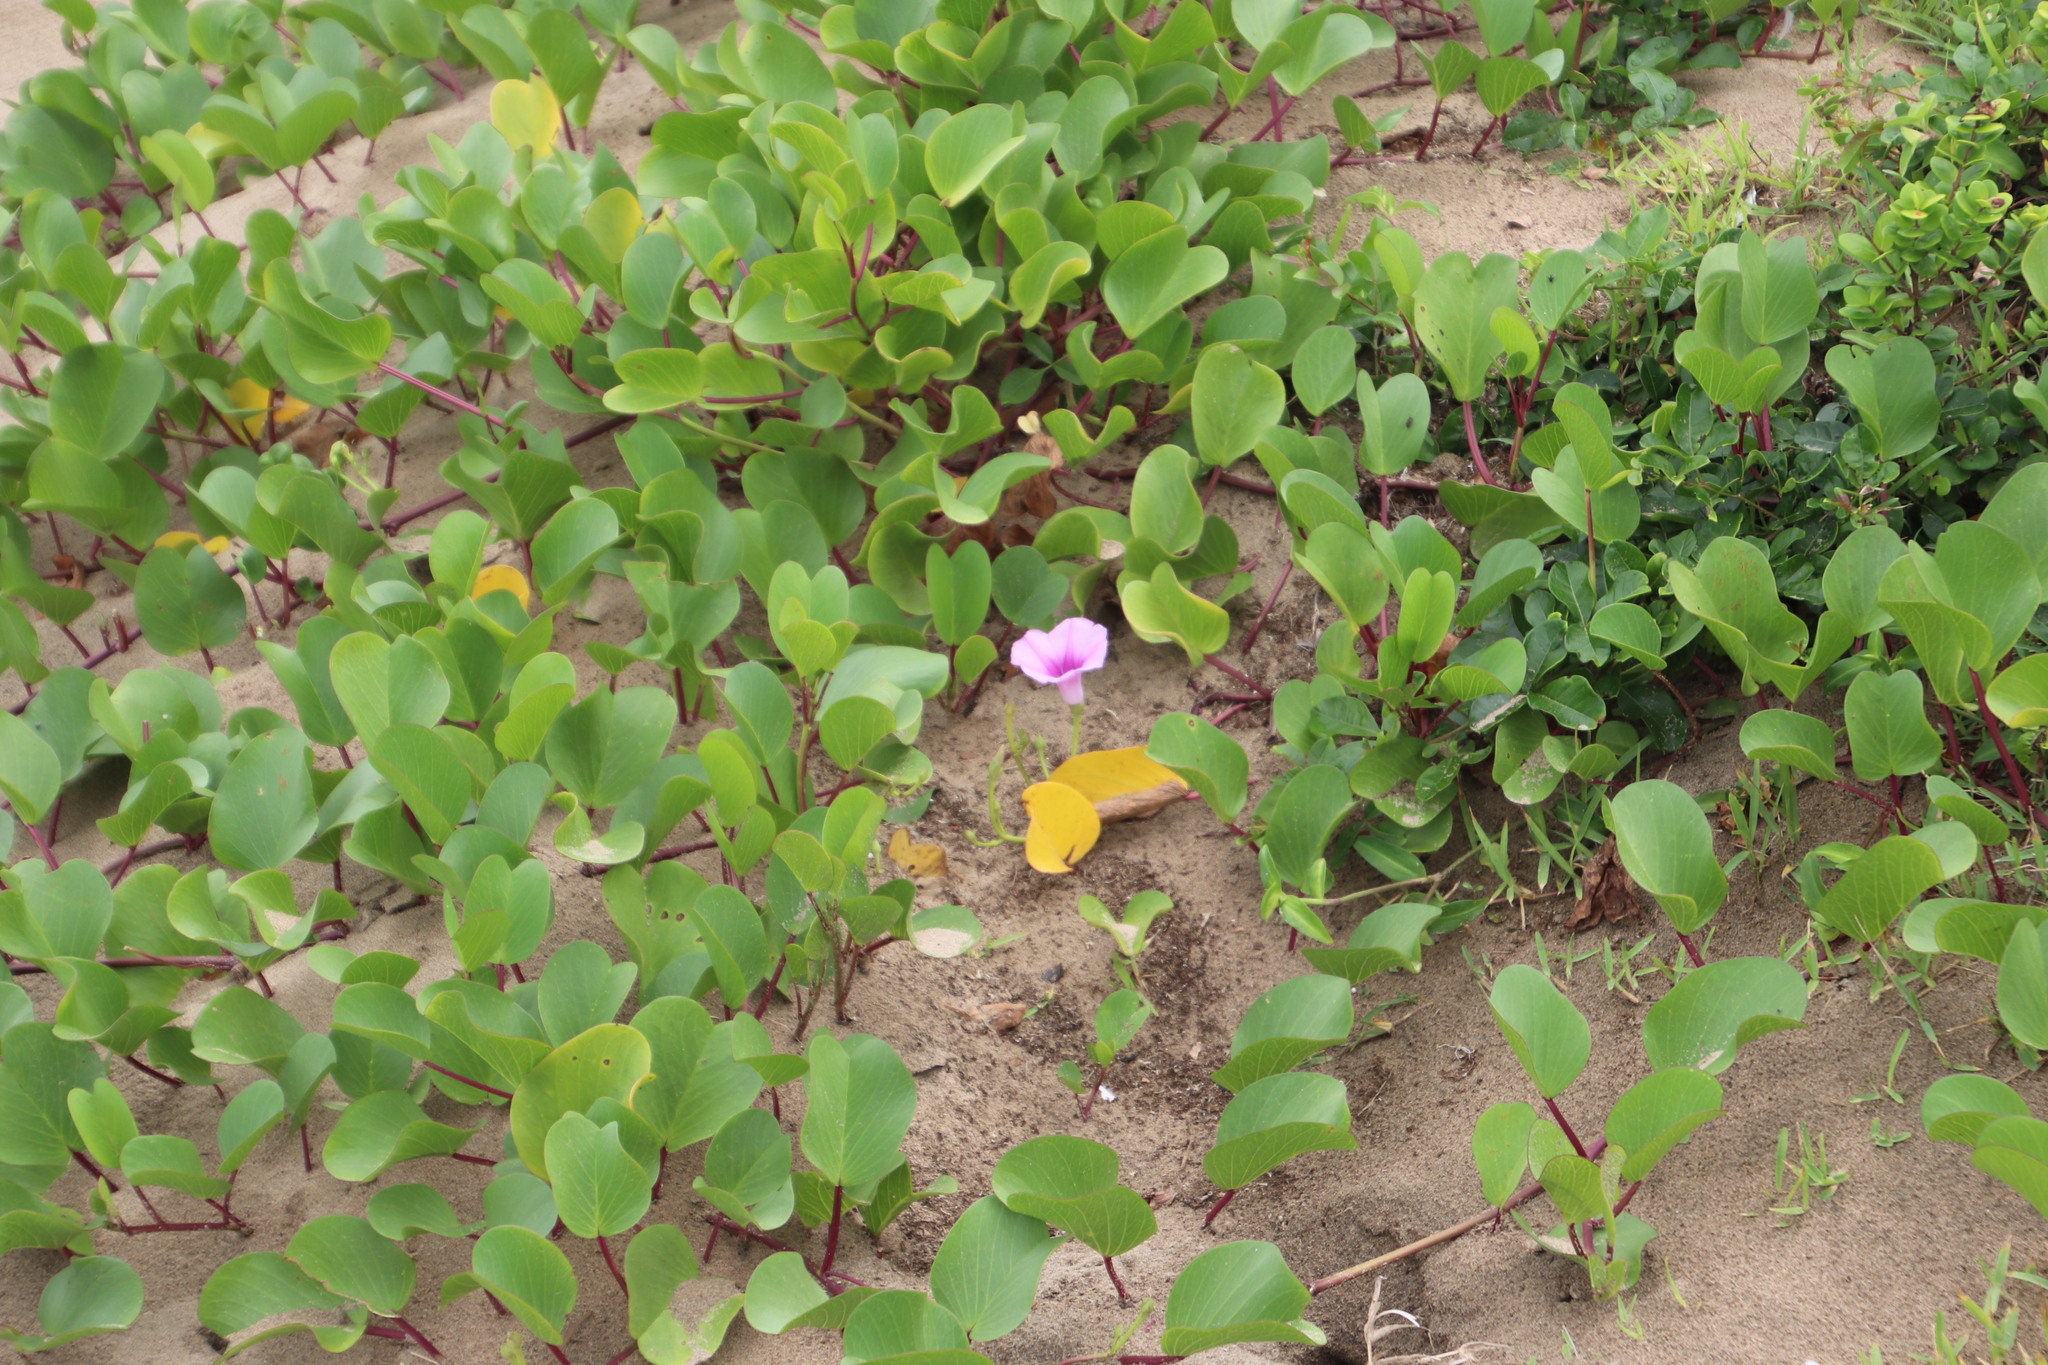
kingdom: Plantae
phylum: Tracheophyta
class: Magnoliopsida
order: Solanales
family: Convolvulaceae
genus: Ipomoea
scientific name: Ipomoea pes-caprae
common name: Beach morning glory
